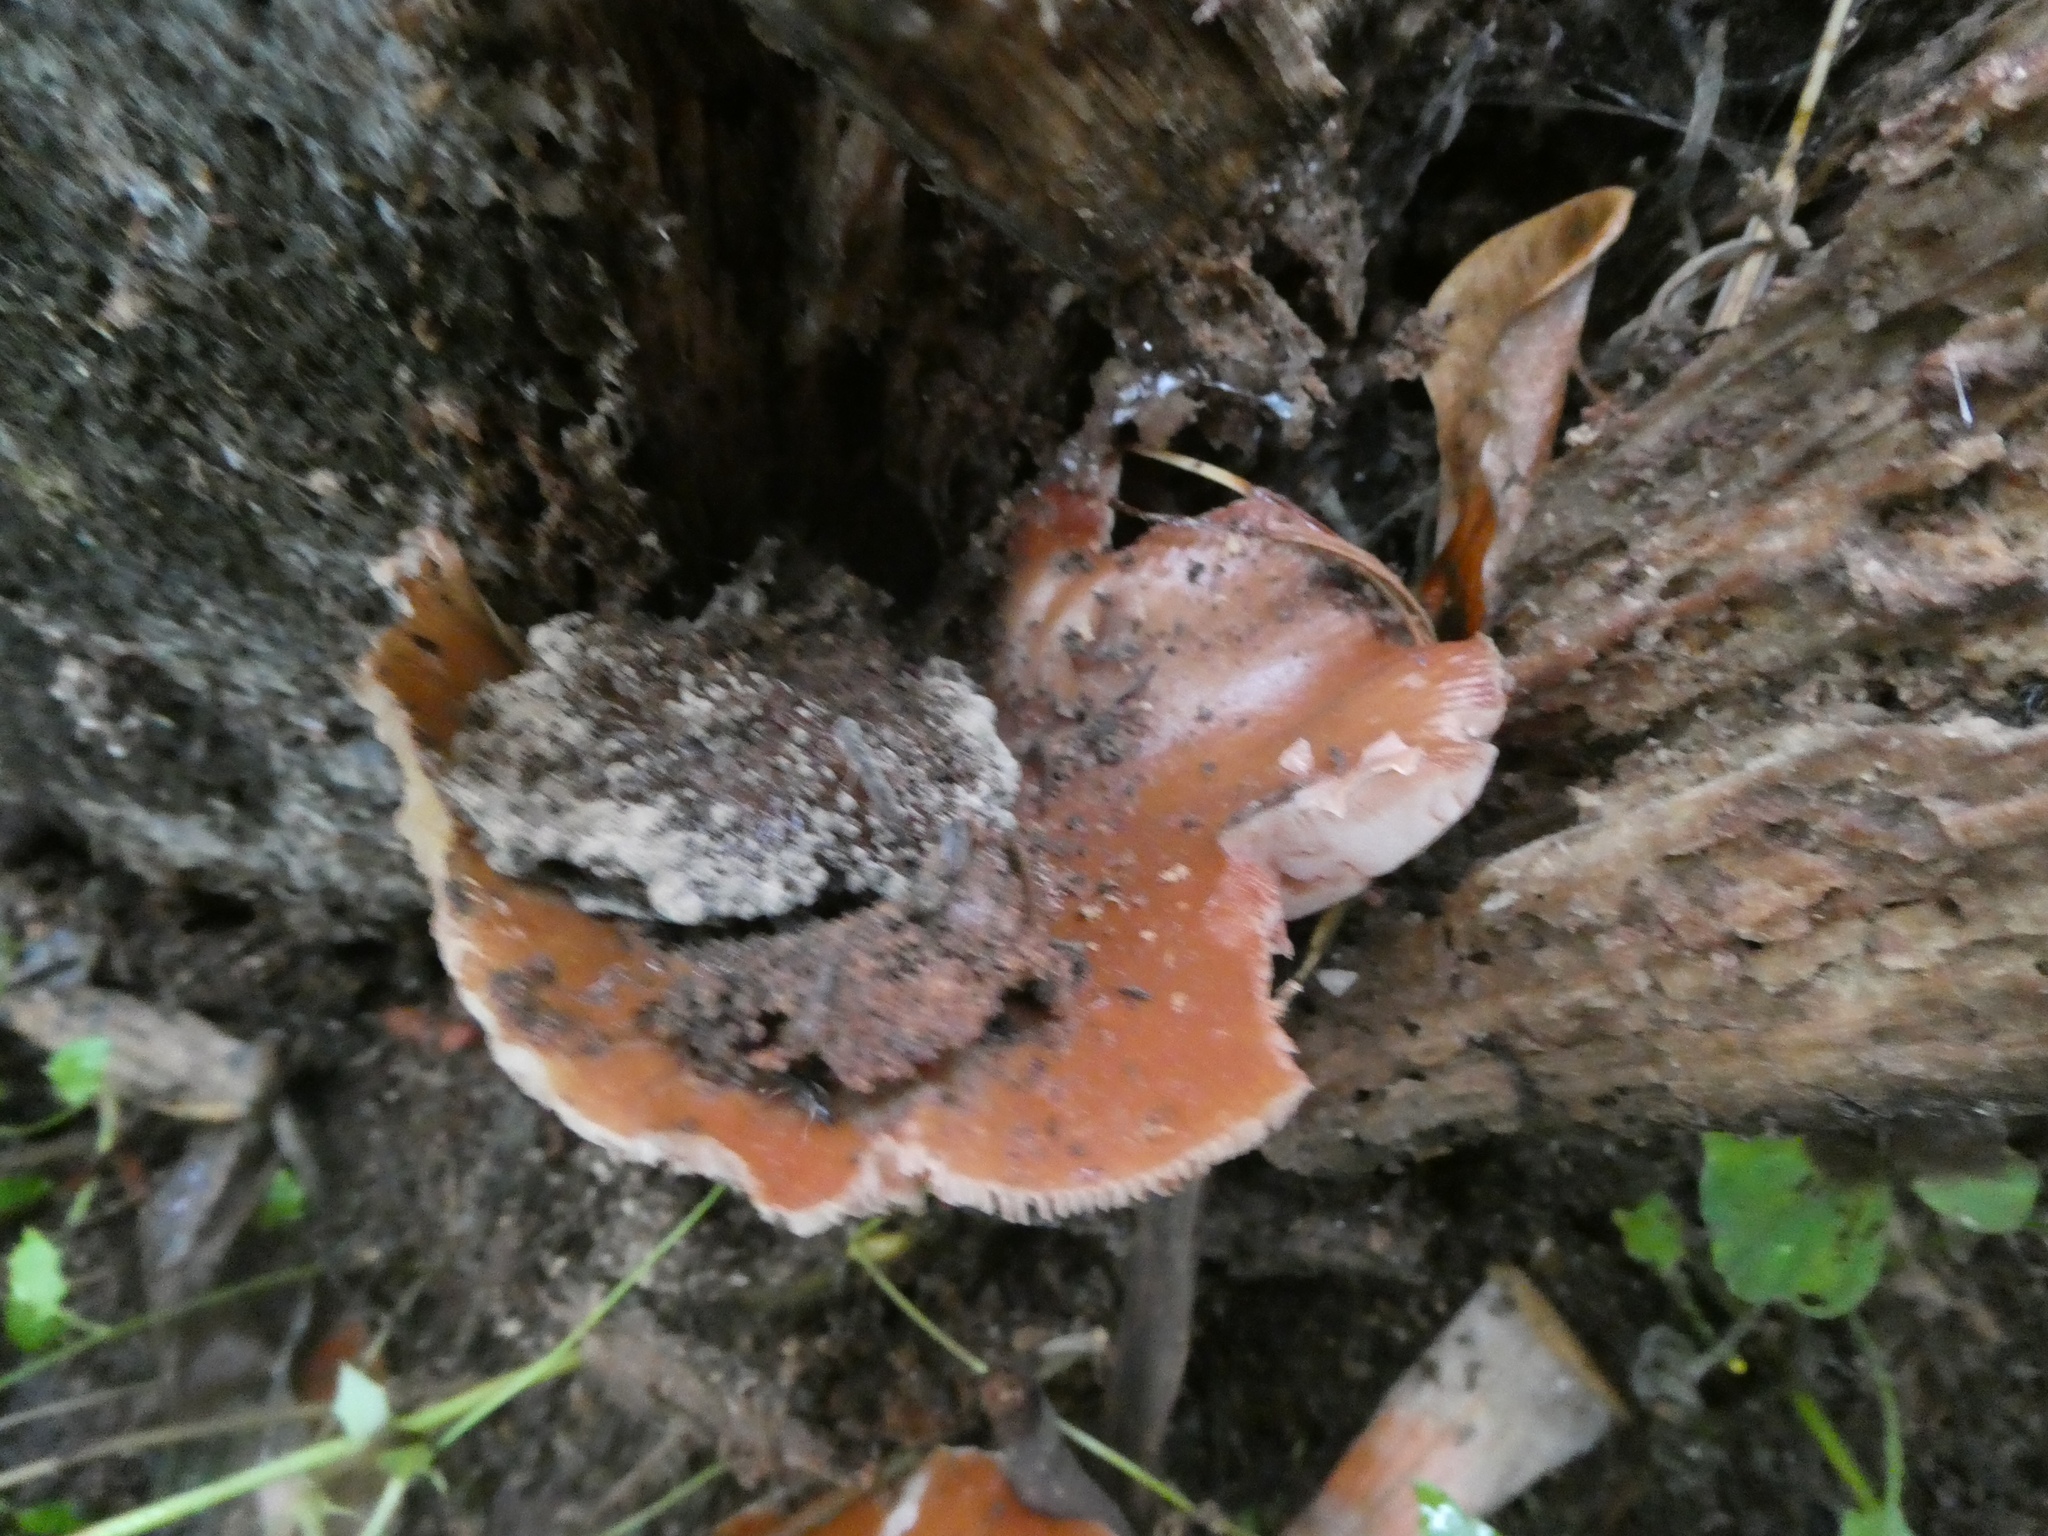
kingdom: Fungi
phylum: Basidiomycota
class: Agaricomycetes
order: Agaricales
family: Pluteaceae
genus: Pluteus
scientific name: Pluteus cervinus
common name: Deer shield
